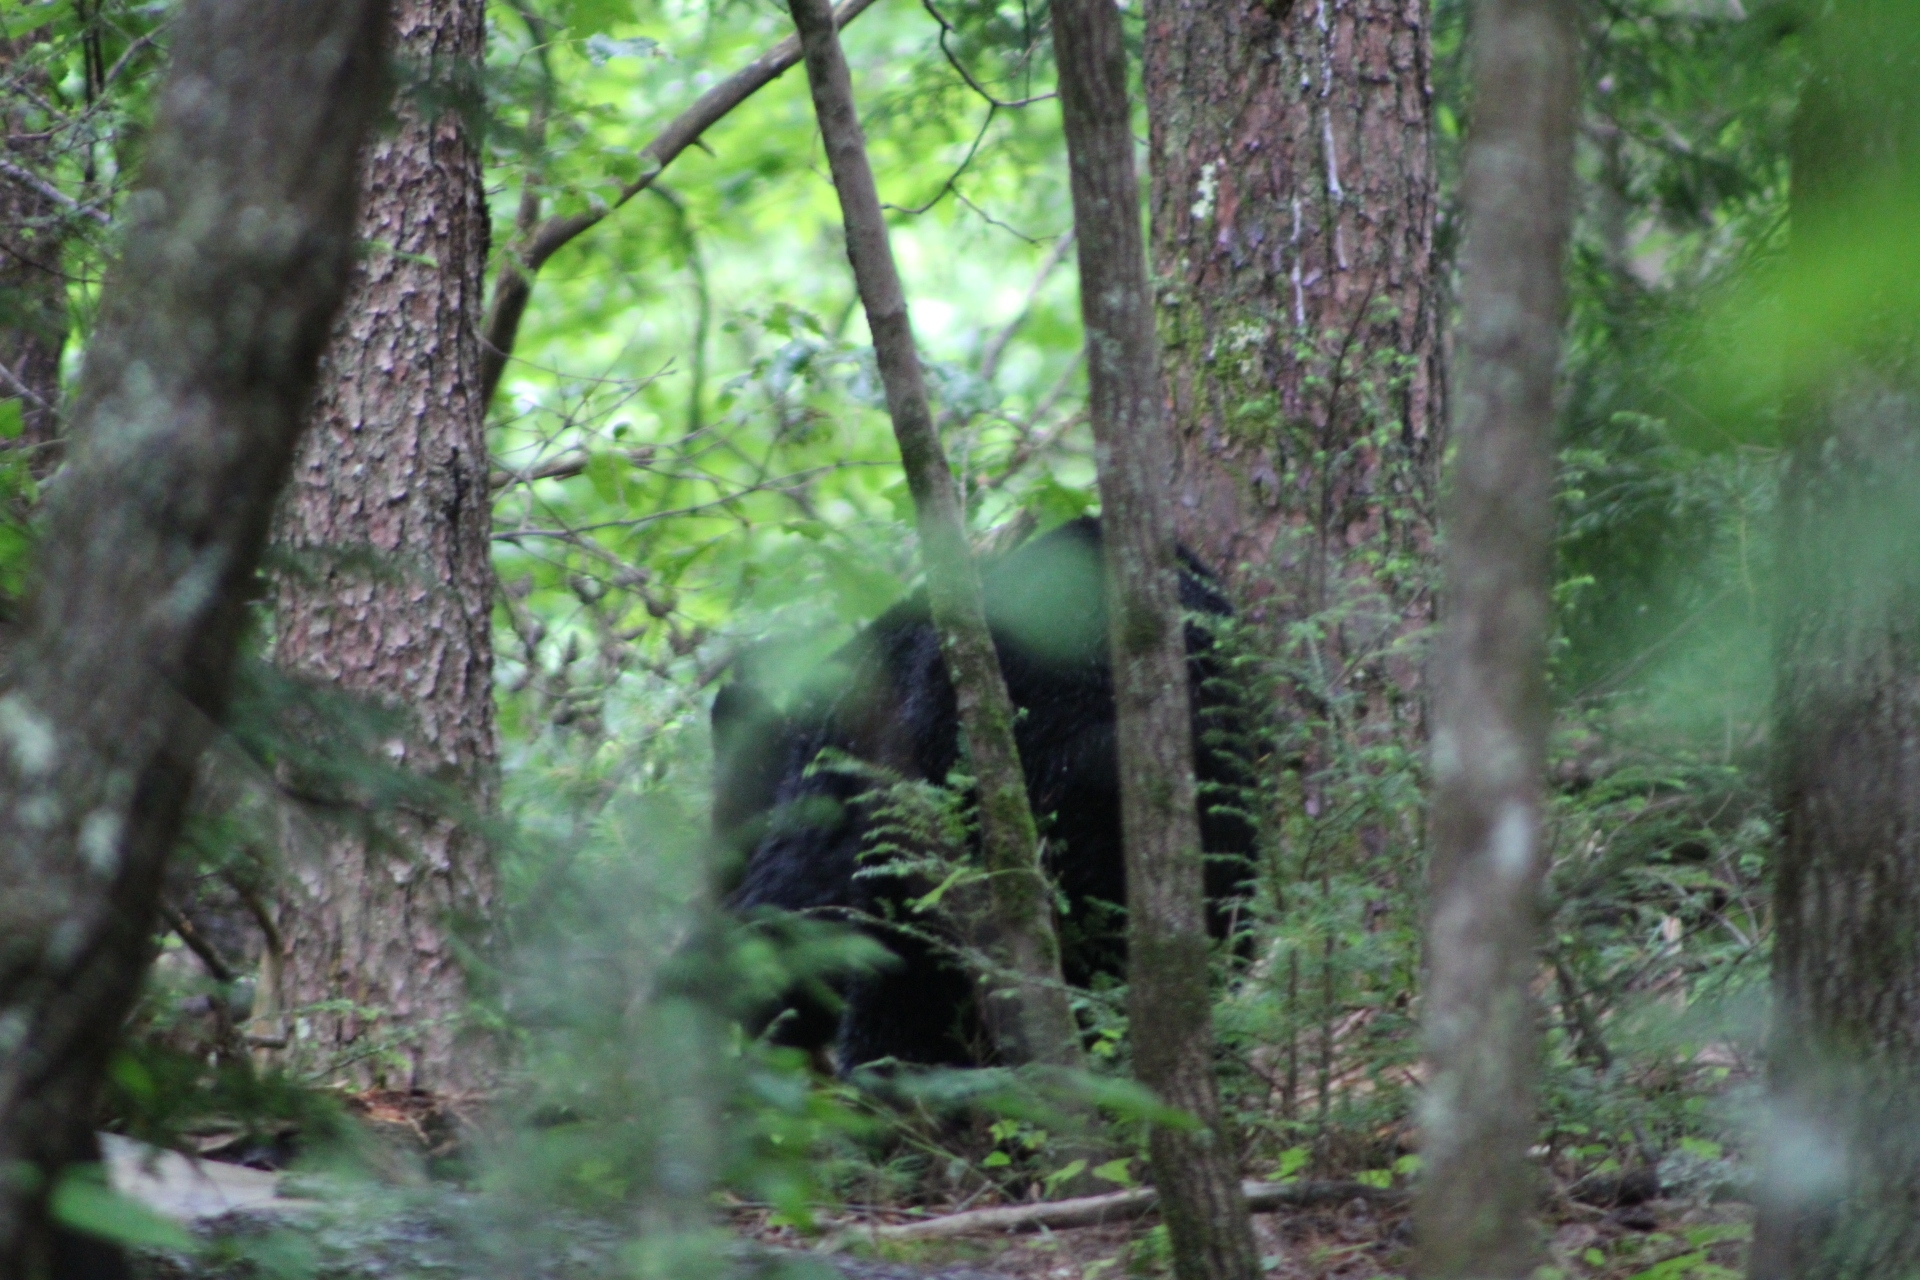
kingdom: Animalia
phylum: Chordata
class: Mammalia
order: Carnivora
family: Ursidae
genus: Ursus
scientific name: Ursus americanus
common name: American black bear
